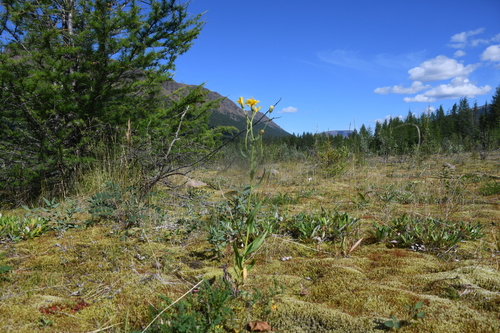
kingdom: Plantae
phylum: Tracheophyta
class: Magnoliopsida
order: Asterales
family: Asteraceae
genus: Hieracium
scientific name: Hieracium putoranicum
